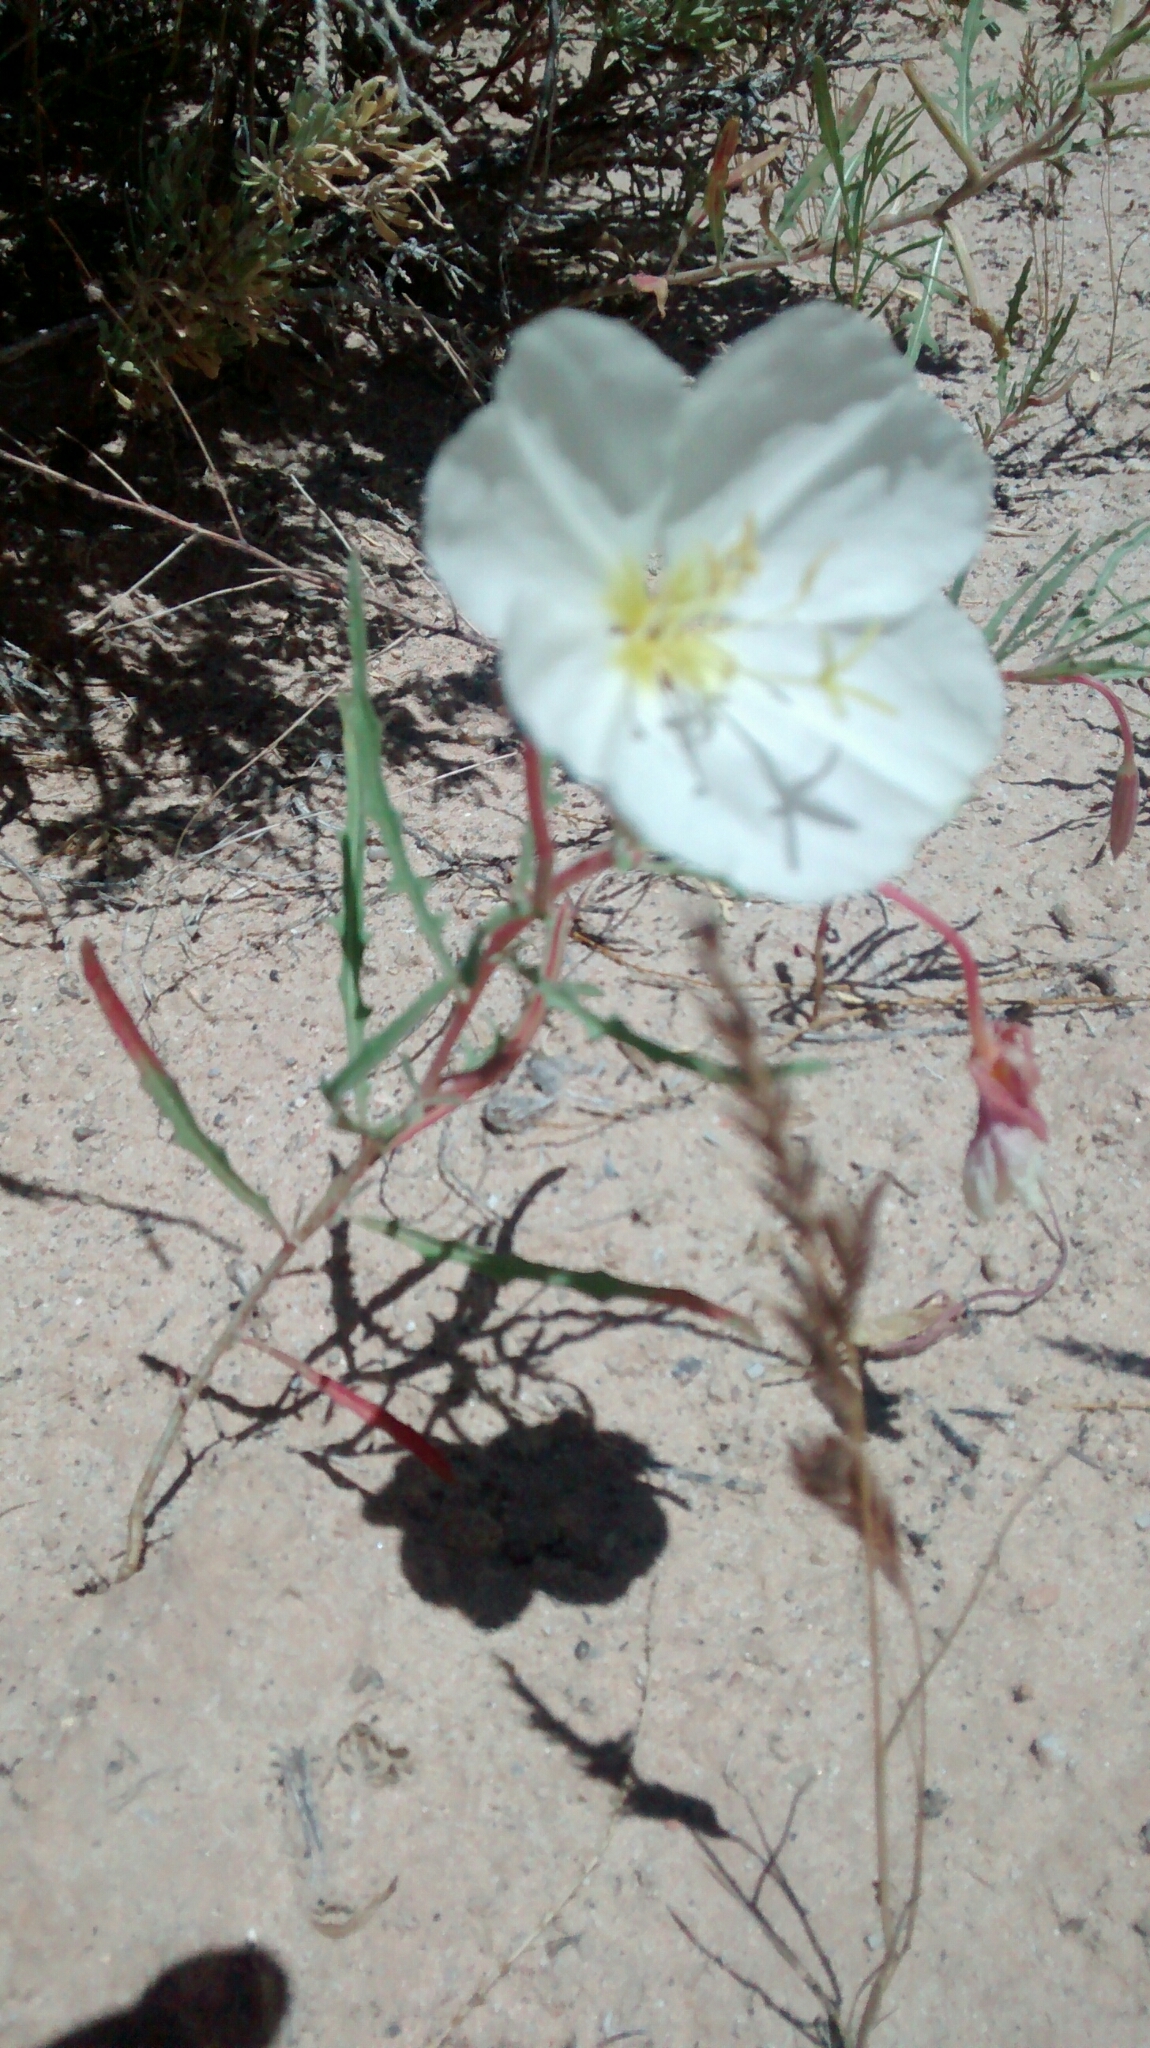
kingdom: Plantae
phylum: Tracheophyta
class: Magnoliopsida
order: Myrtales
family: Onagraceae
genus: Oenothera
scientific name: Oenothera pallida
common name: Pale evening-primrose
